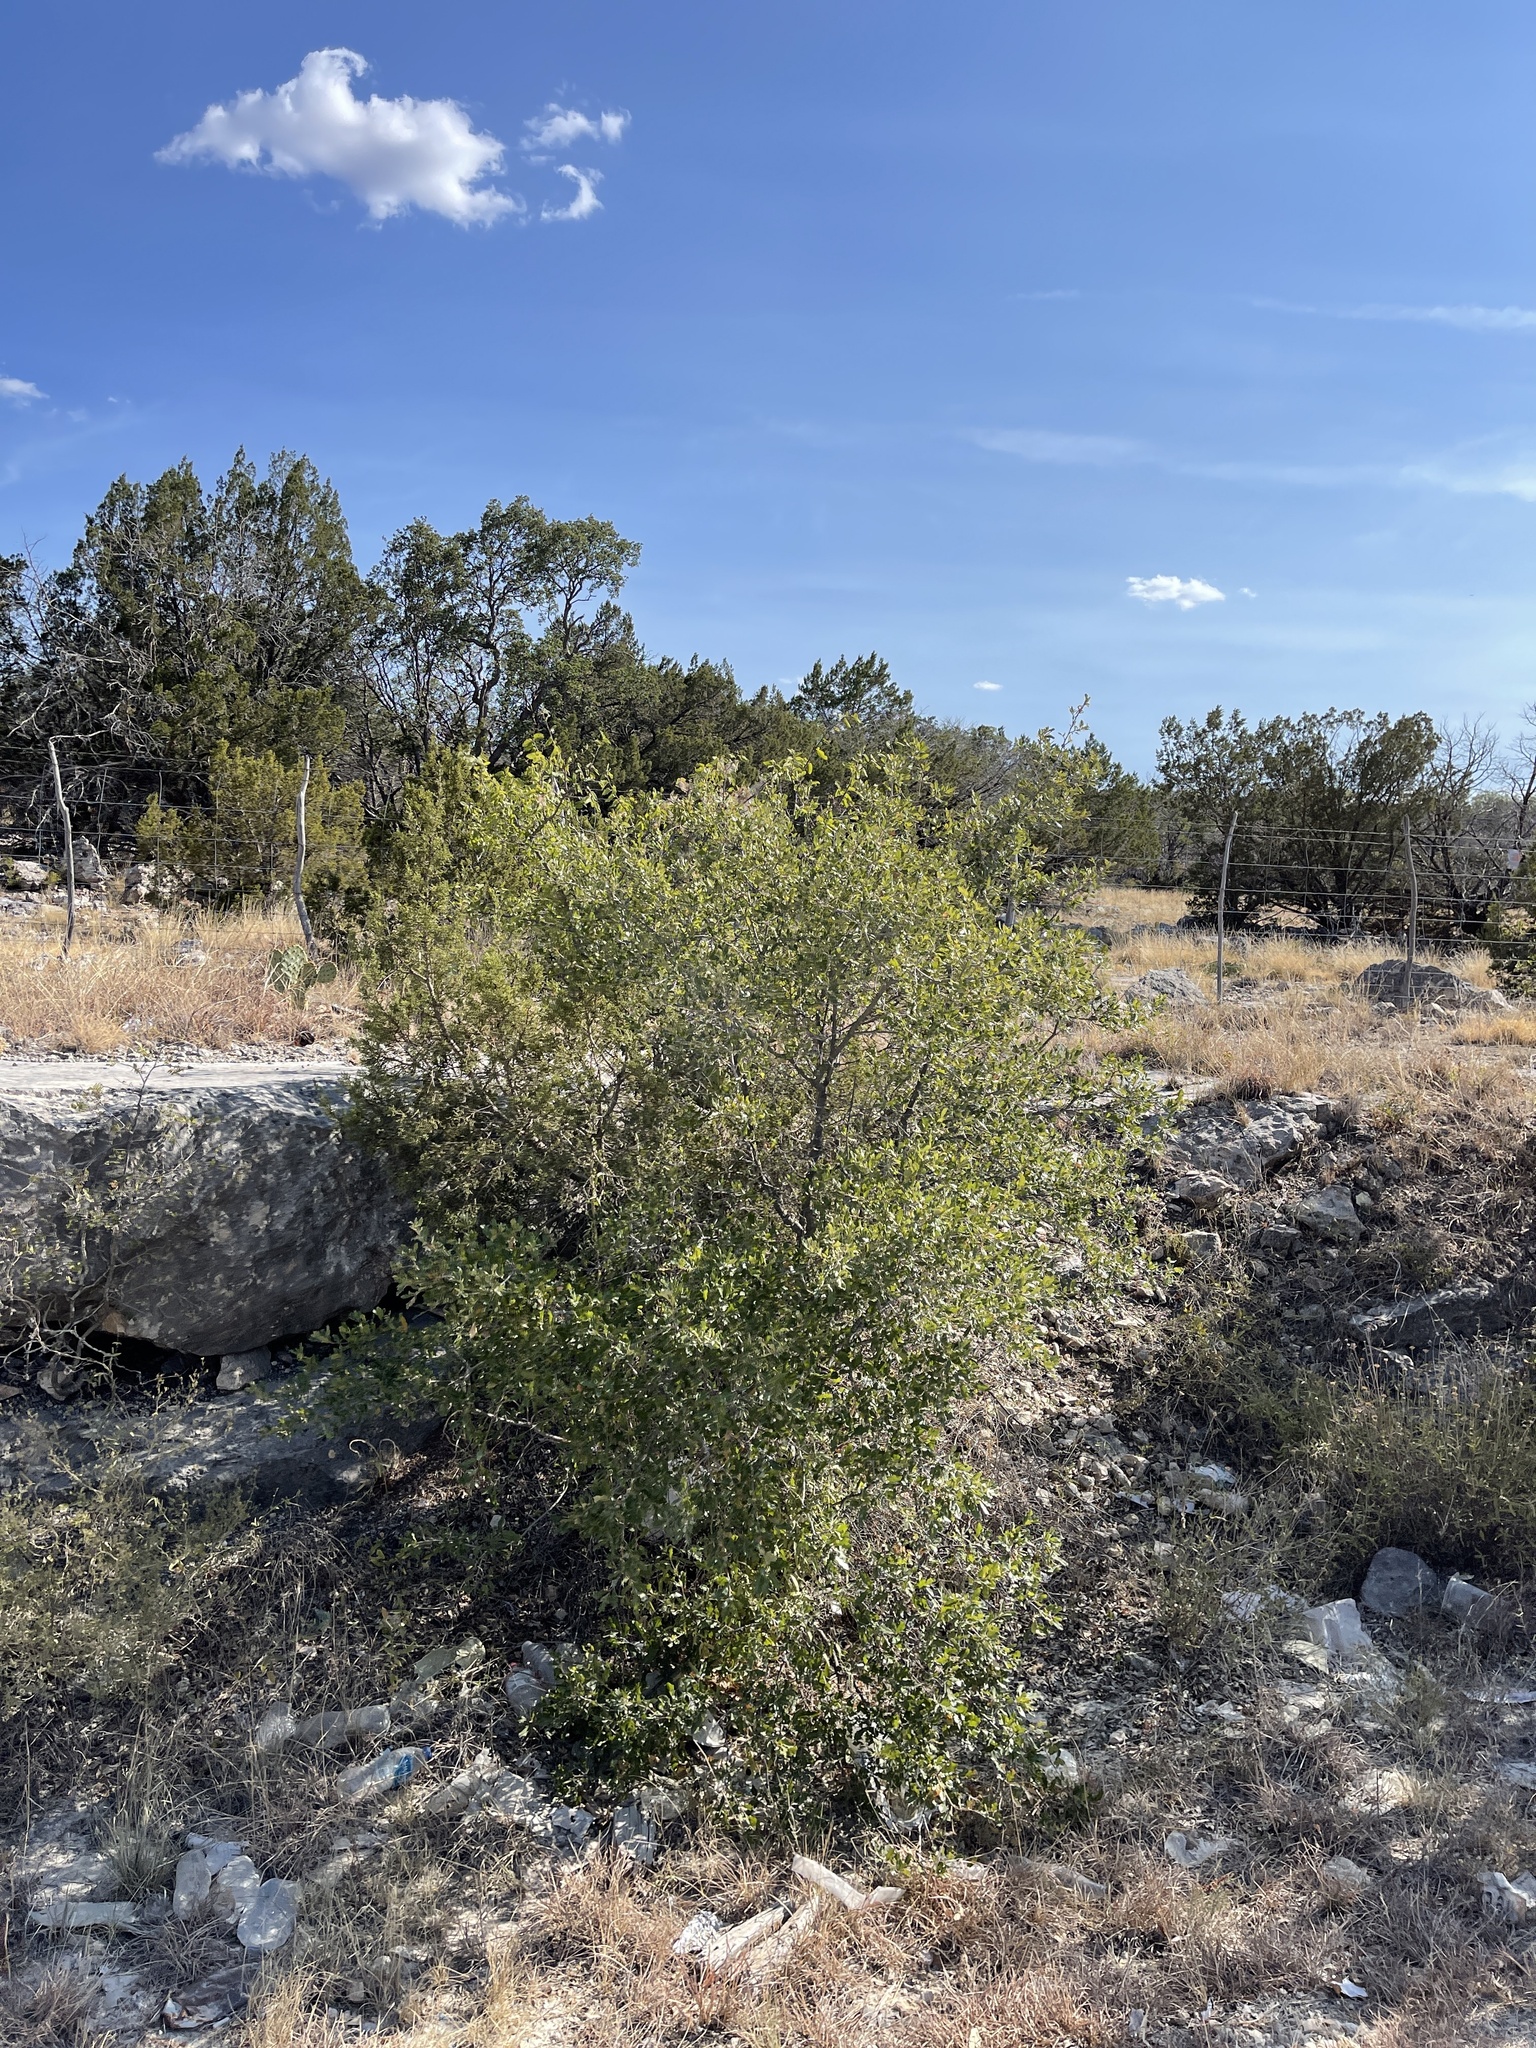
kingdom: Plantae
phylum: Tracheophyta
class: Magnoliopsida
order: Fagales
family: Fagaceae
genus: Quercus
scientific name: Quercus vaseyana
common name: Sandpaper oak
